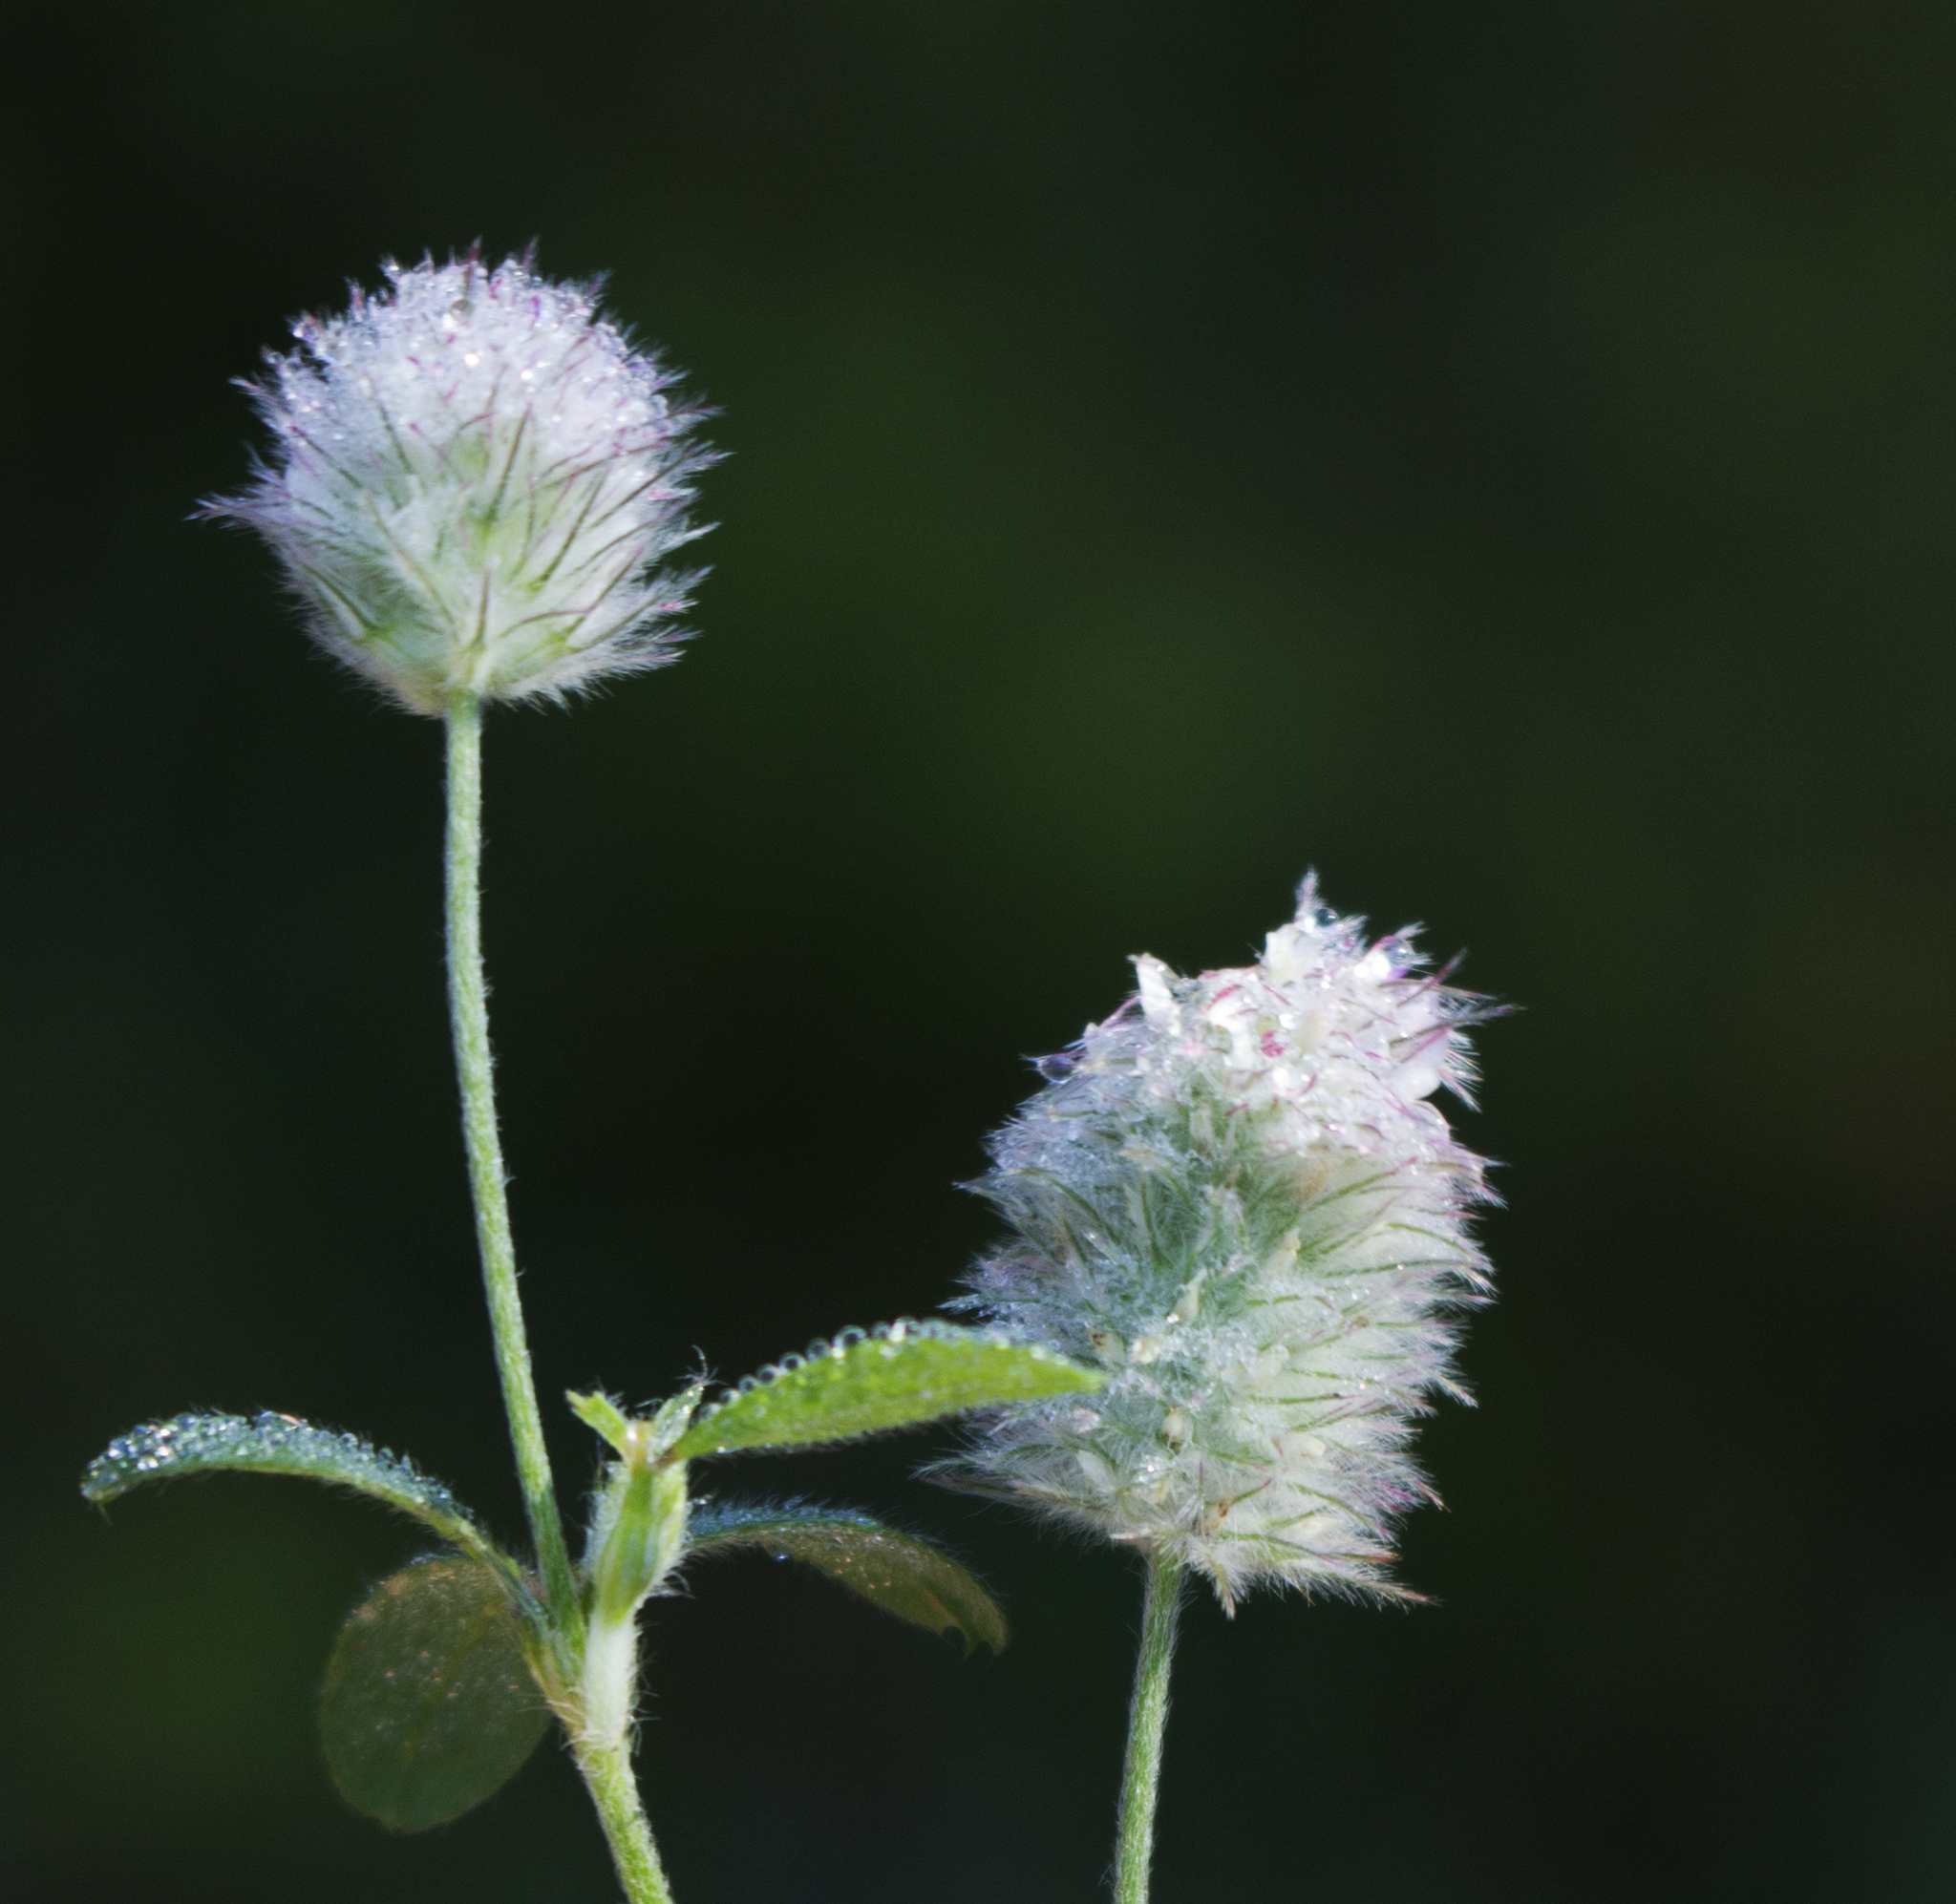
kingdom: Plantae
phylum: Tracheophyta
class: Magnoliopsida
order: Fabales
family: Fabaceae
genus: Trifolium
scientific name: Trifolium arvense
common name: Hare's-foot clover
